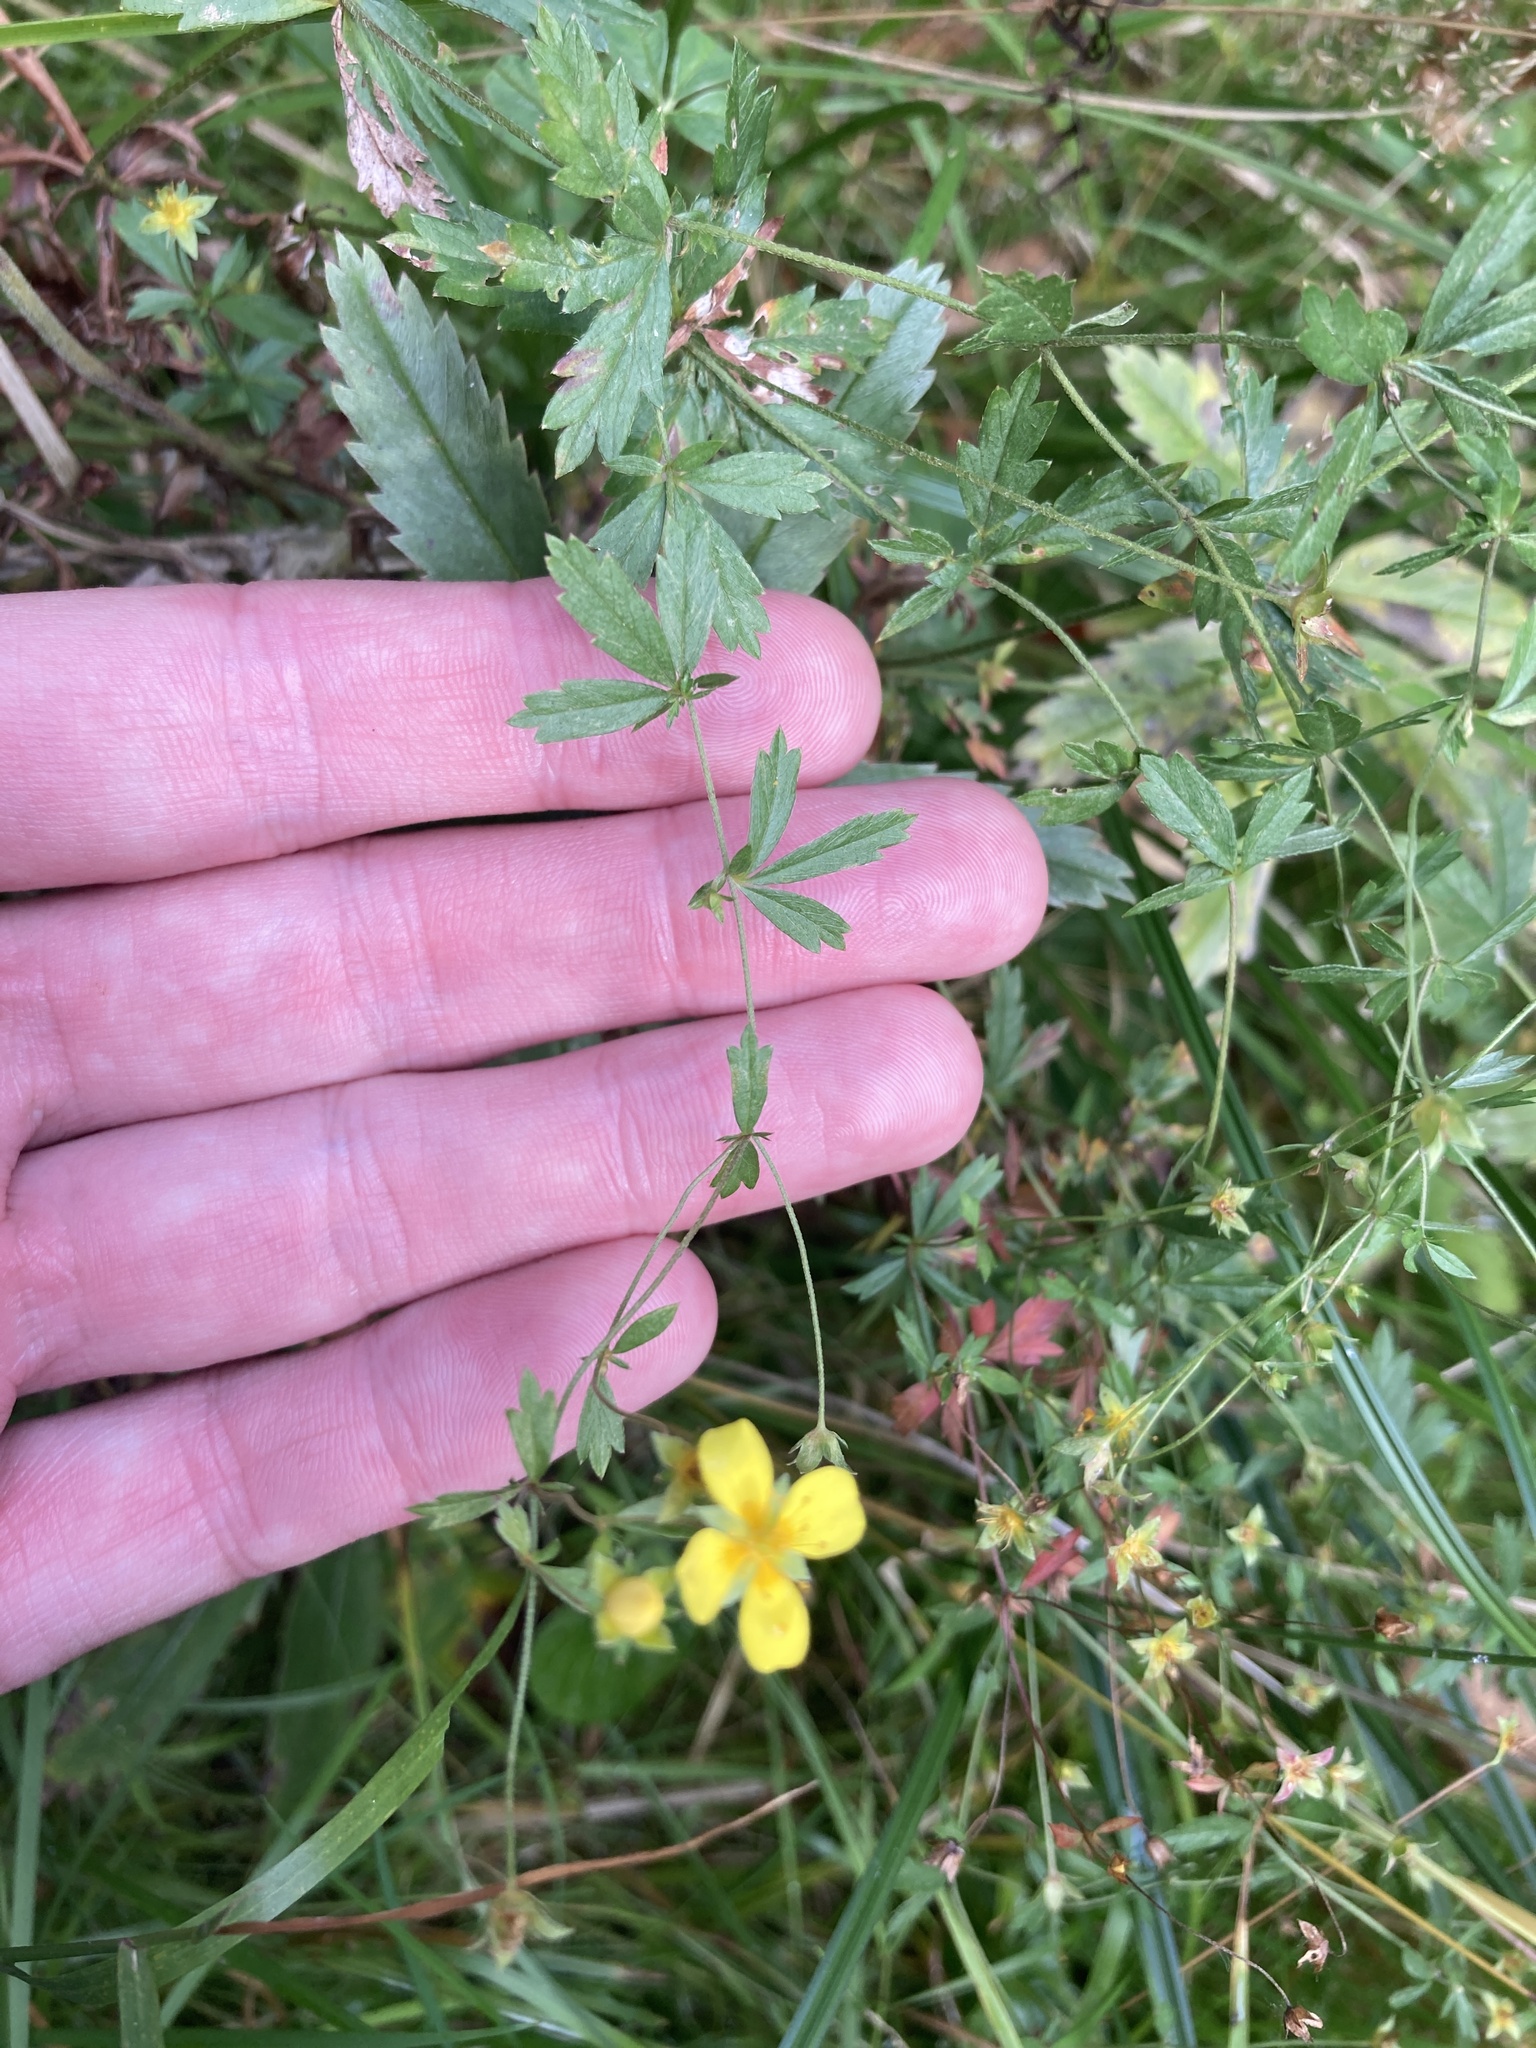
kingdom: Plantae
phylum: Tracheophyta
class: Magnoliopsida
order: Rosales
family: Rosaceae
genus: Potentilla
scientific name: Potentilla erecta
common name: Tormentil
